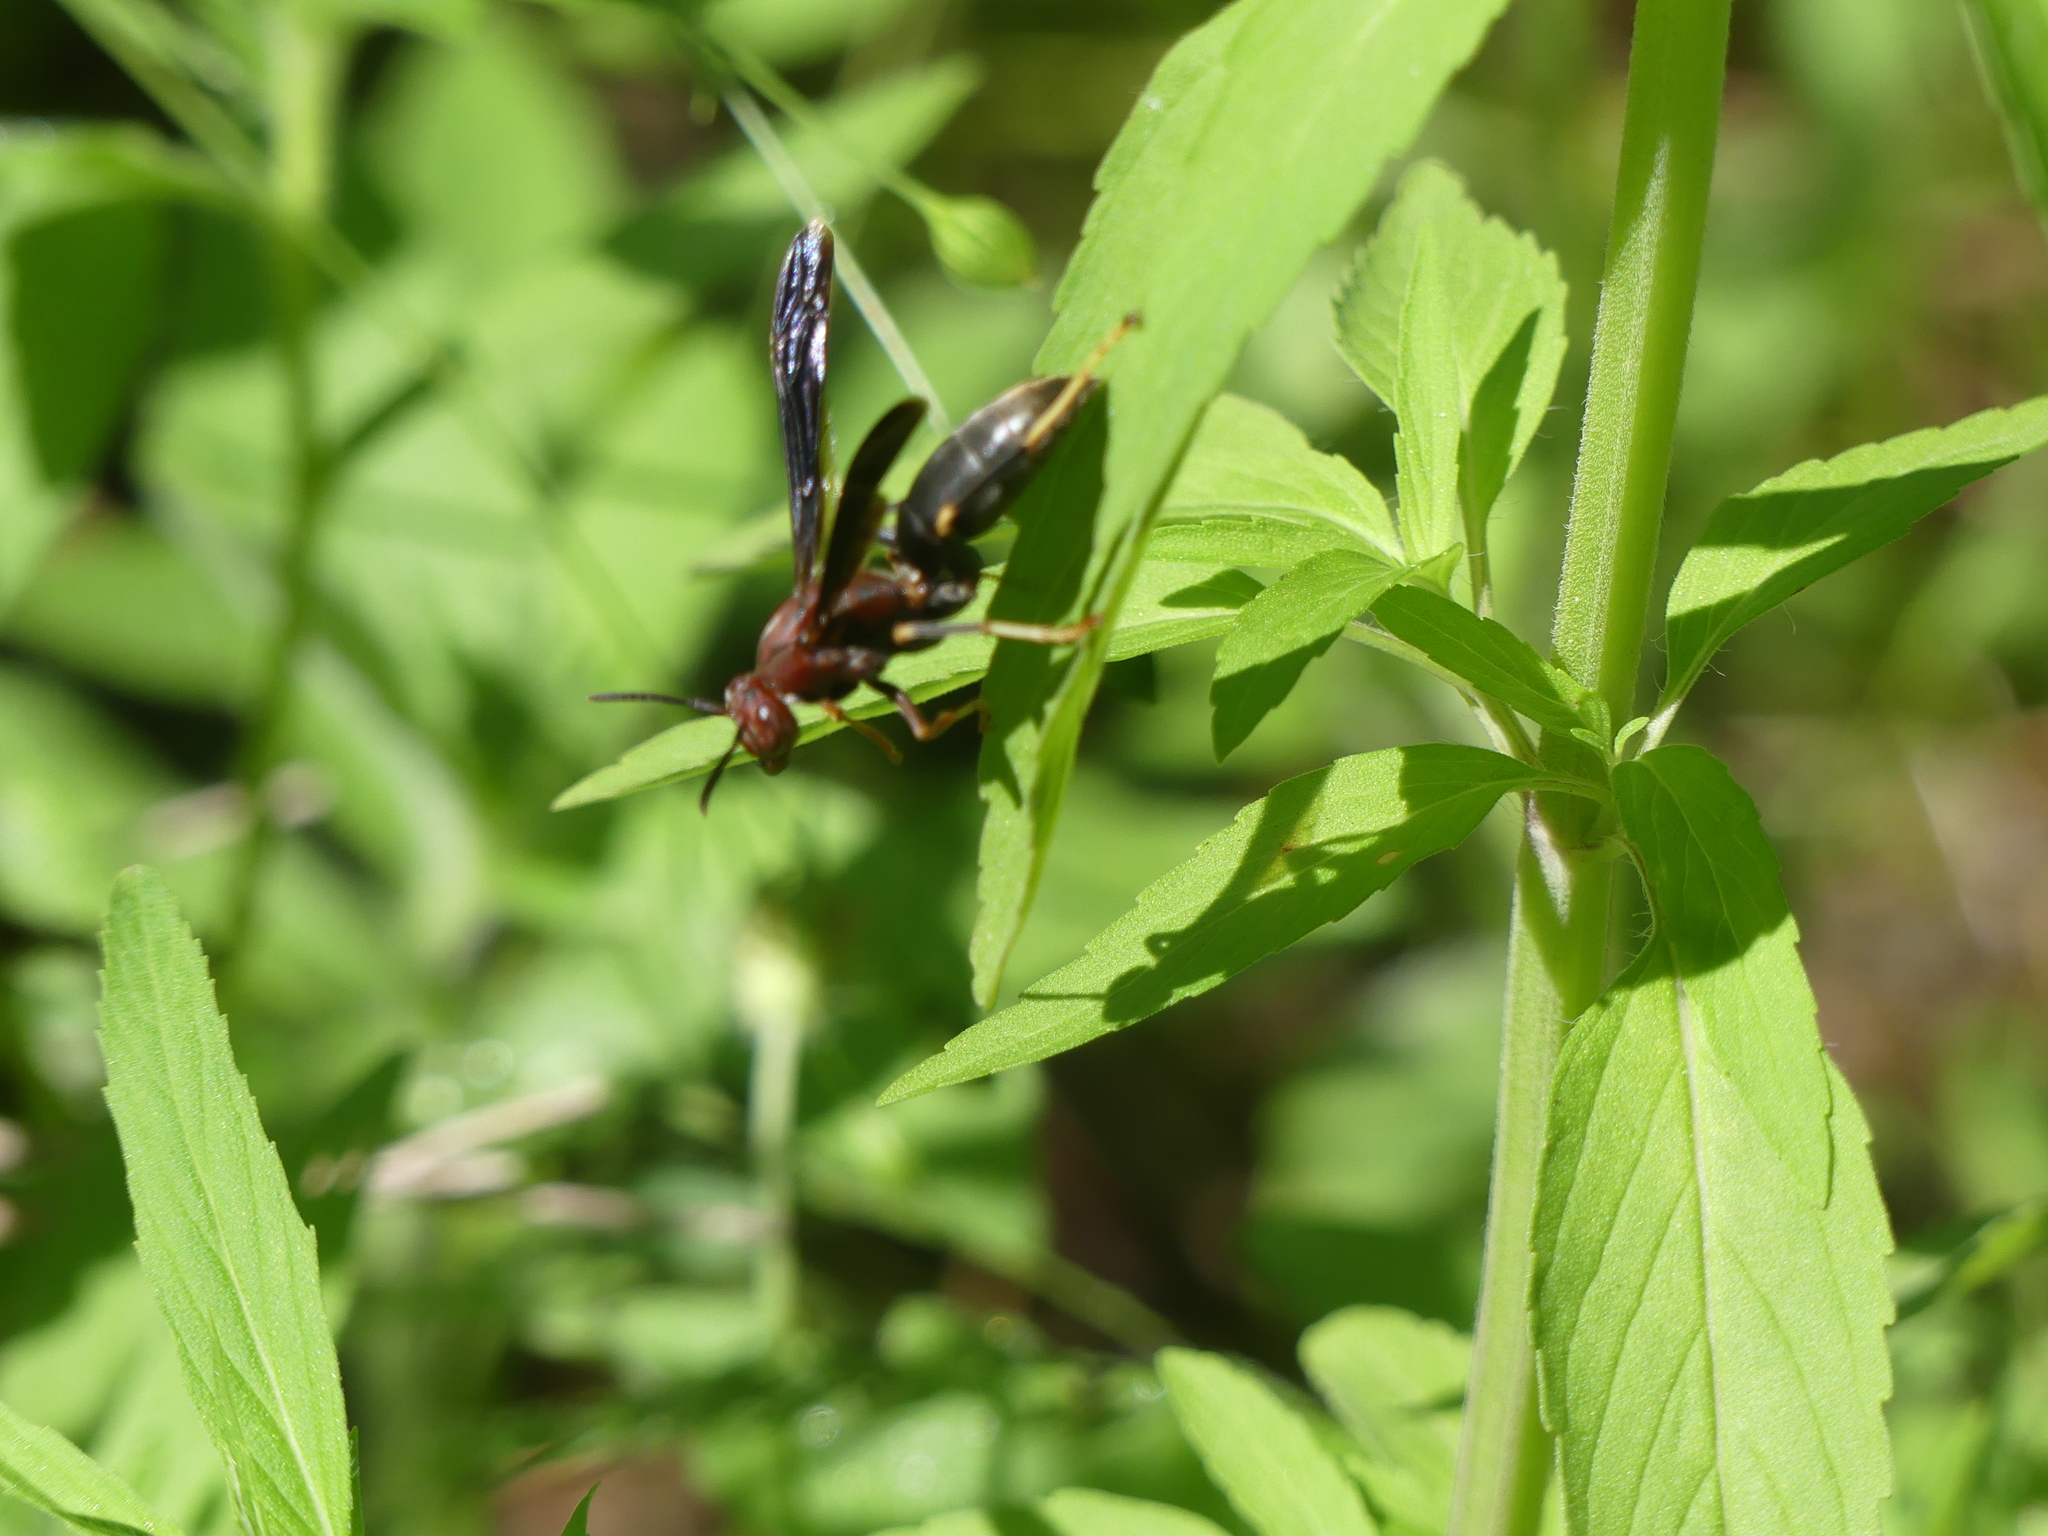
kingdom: Animalia
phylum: Arthropoda
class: Insecta
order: Hymenoptera
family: Eumenidae
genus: Polistes
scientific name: Polistes metricus
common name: Metric paper wasp
